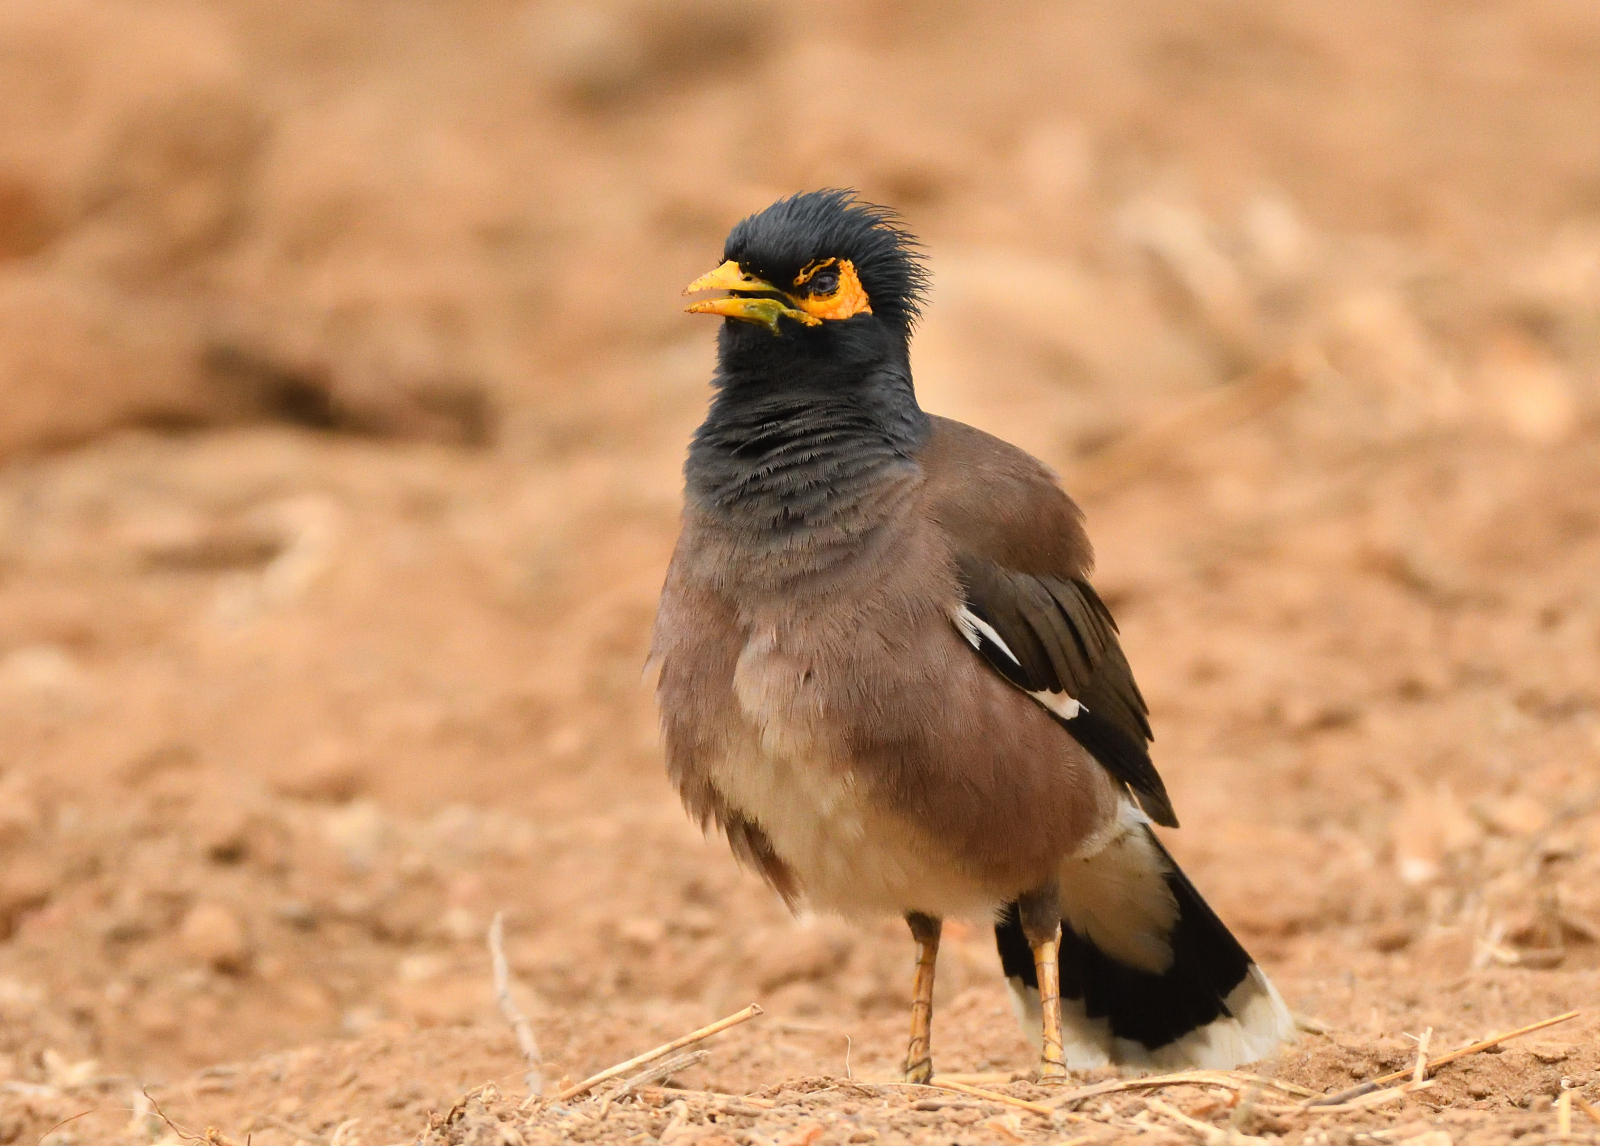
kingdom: Animalia
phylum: Chordata
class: Aves
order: Passeriformes
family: Sturnidae
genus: Acridotheres
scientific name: Acridotheres tristis
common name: Common myna
